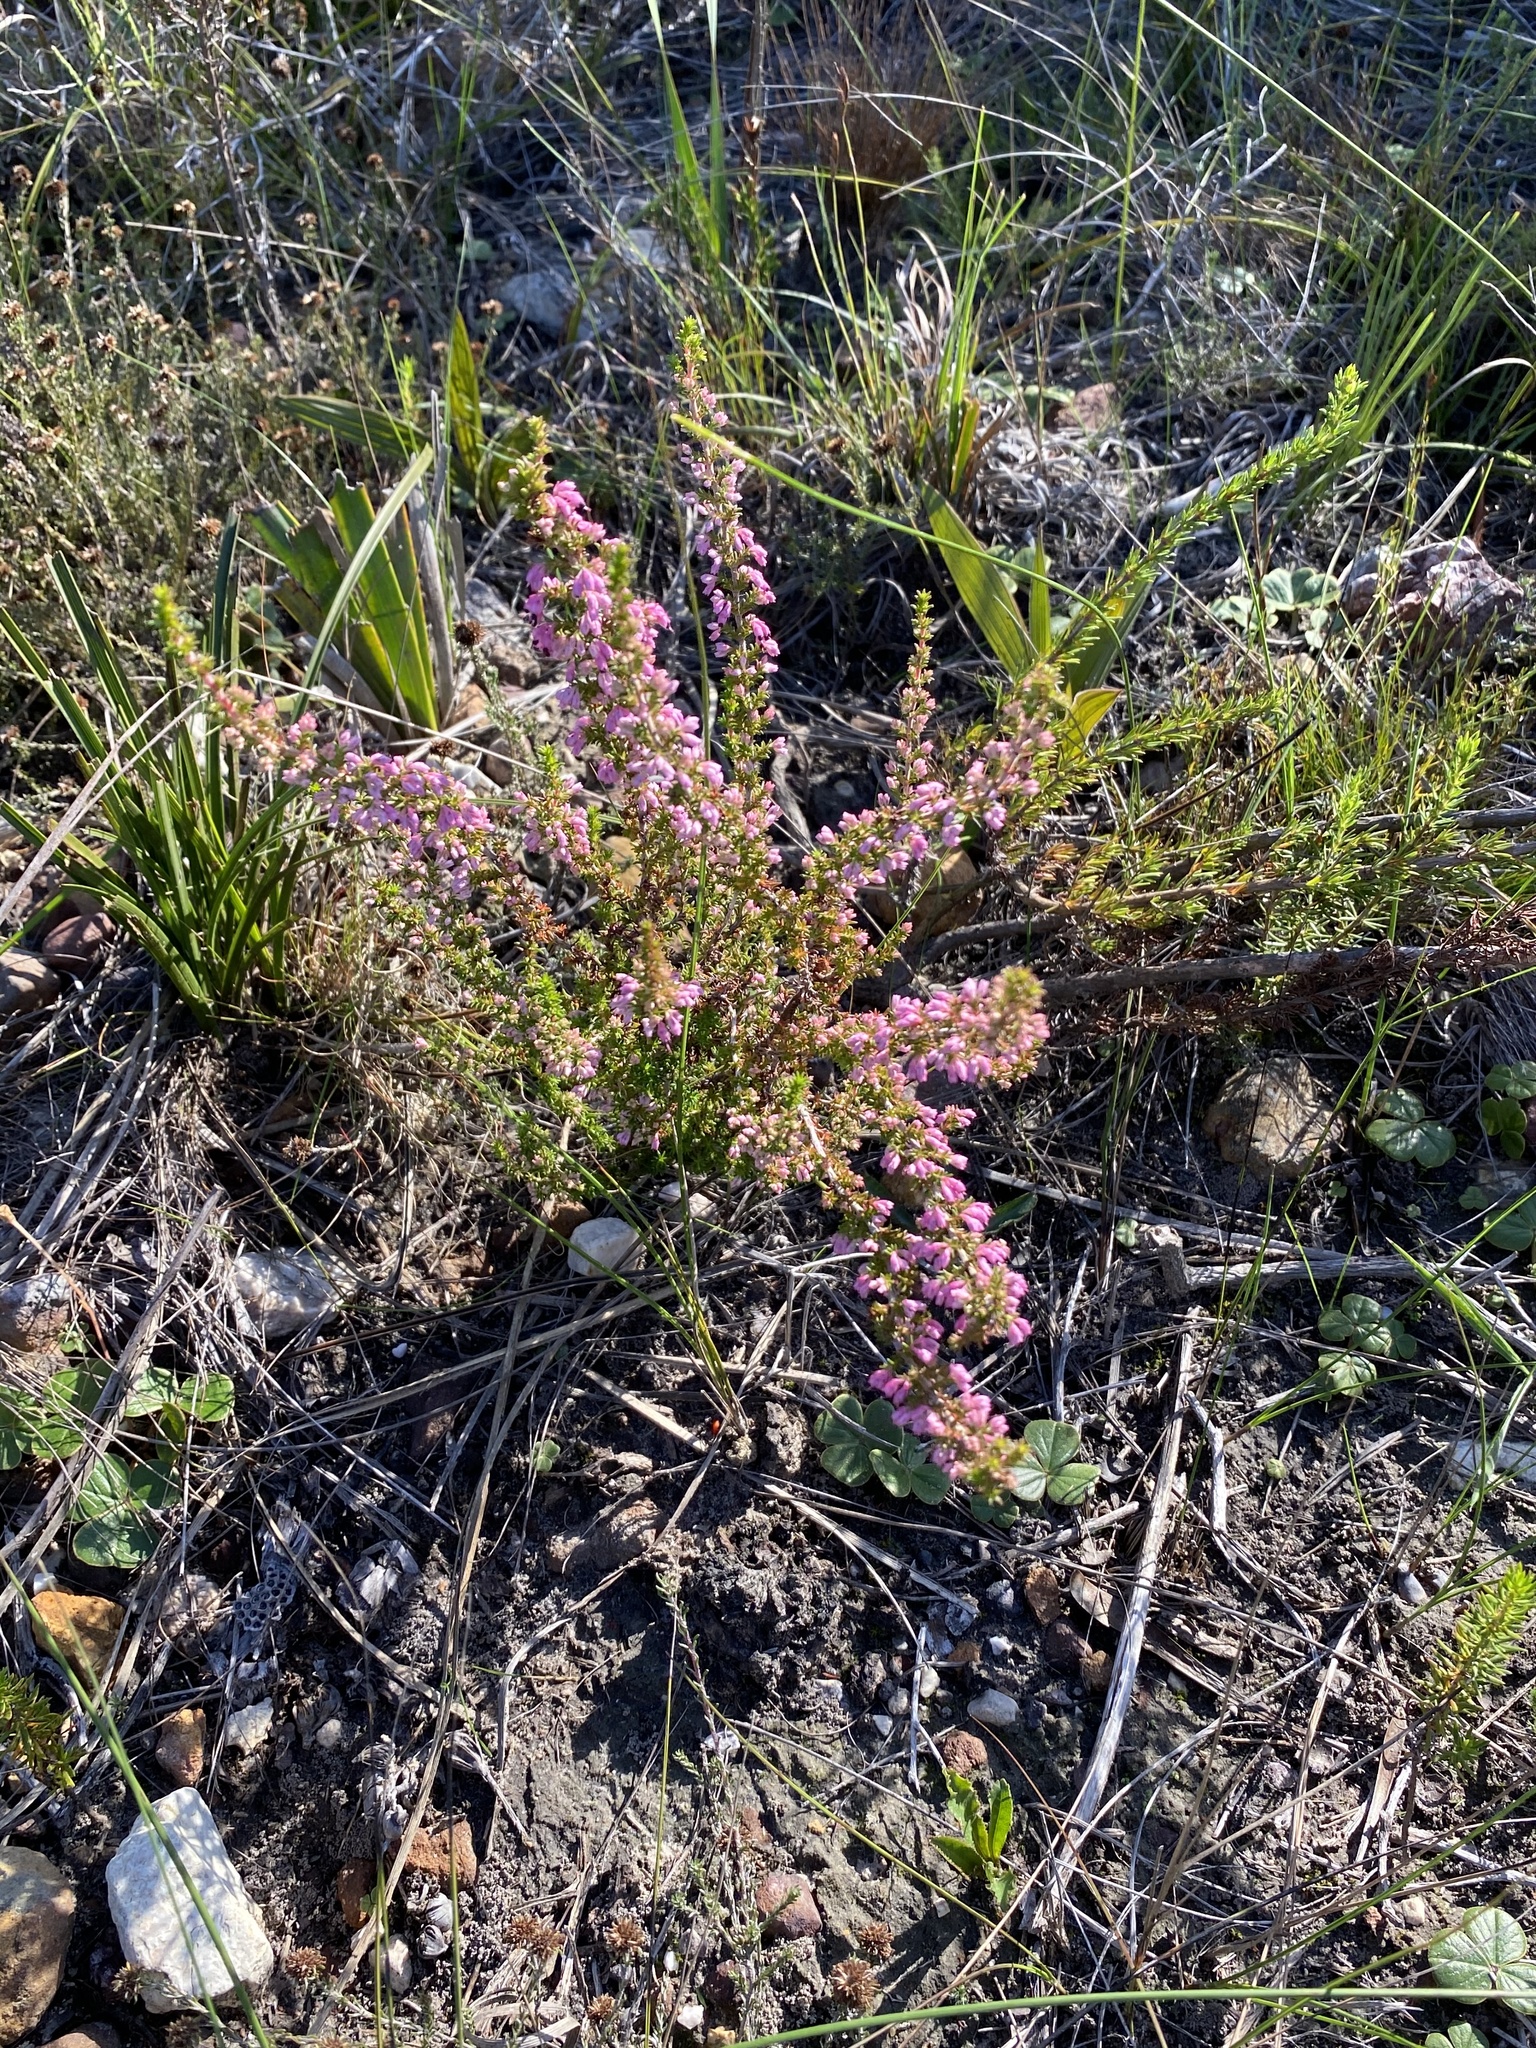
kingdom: Plantae
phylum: Tracheophyta
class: Magnoliopsida
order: Ericales
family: Ericaceae
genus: Erica
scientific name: Erica placentiflora
